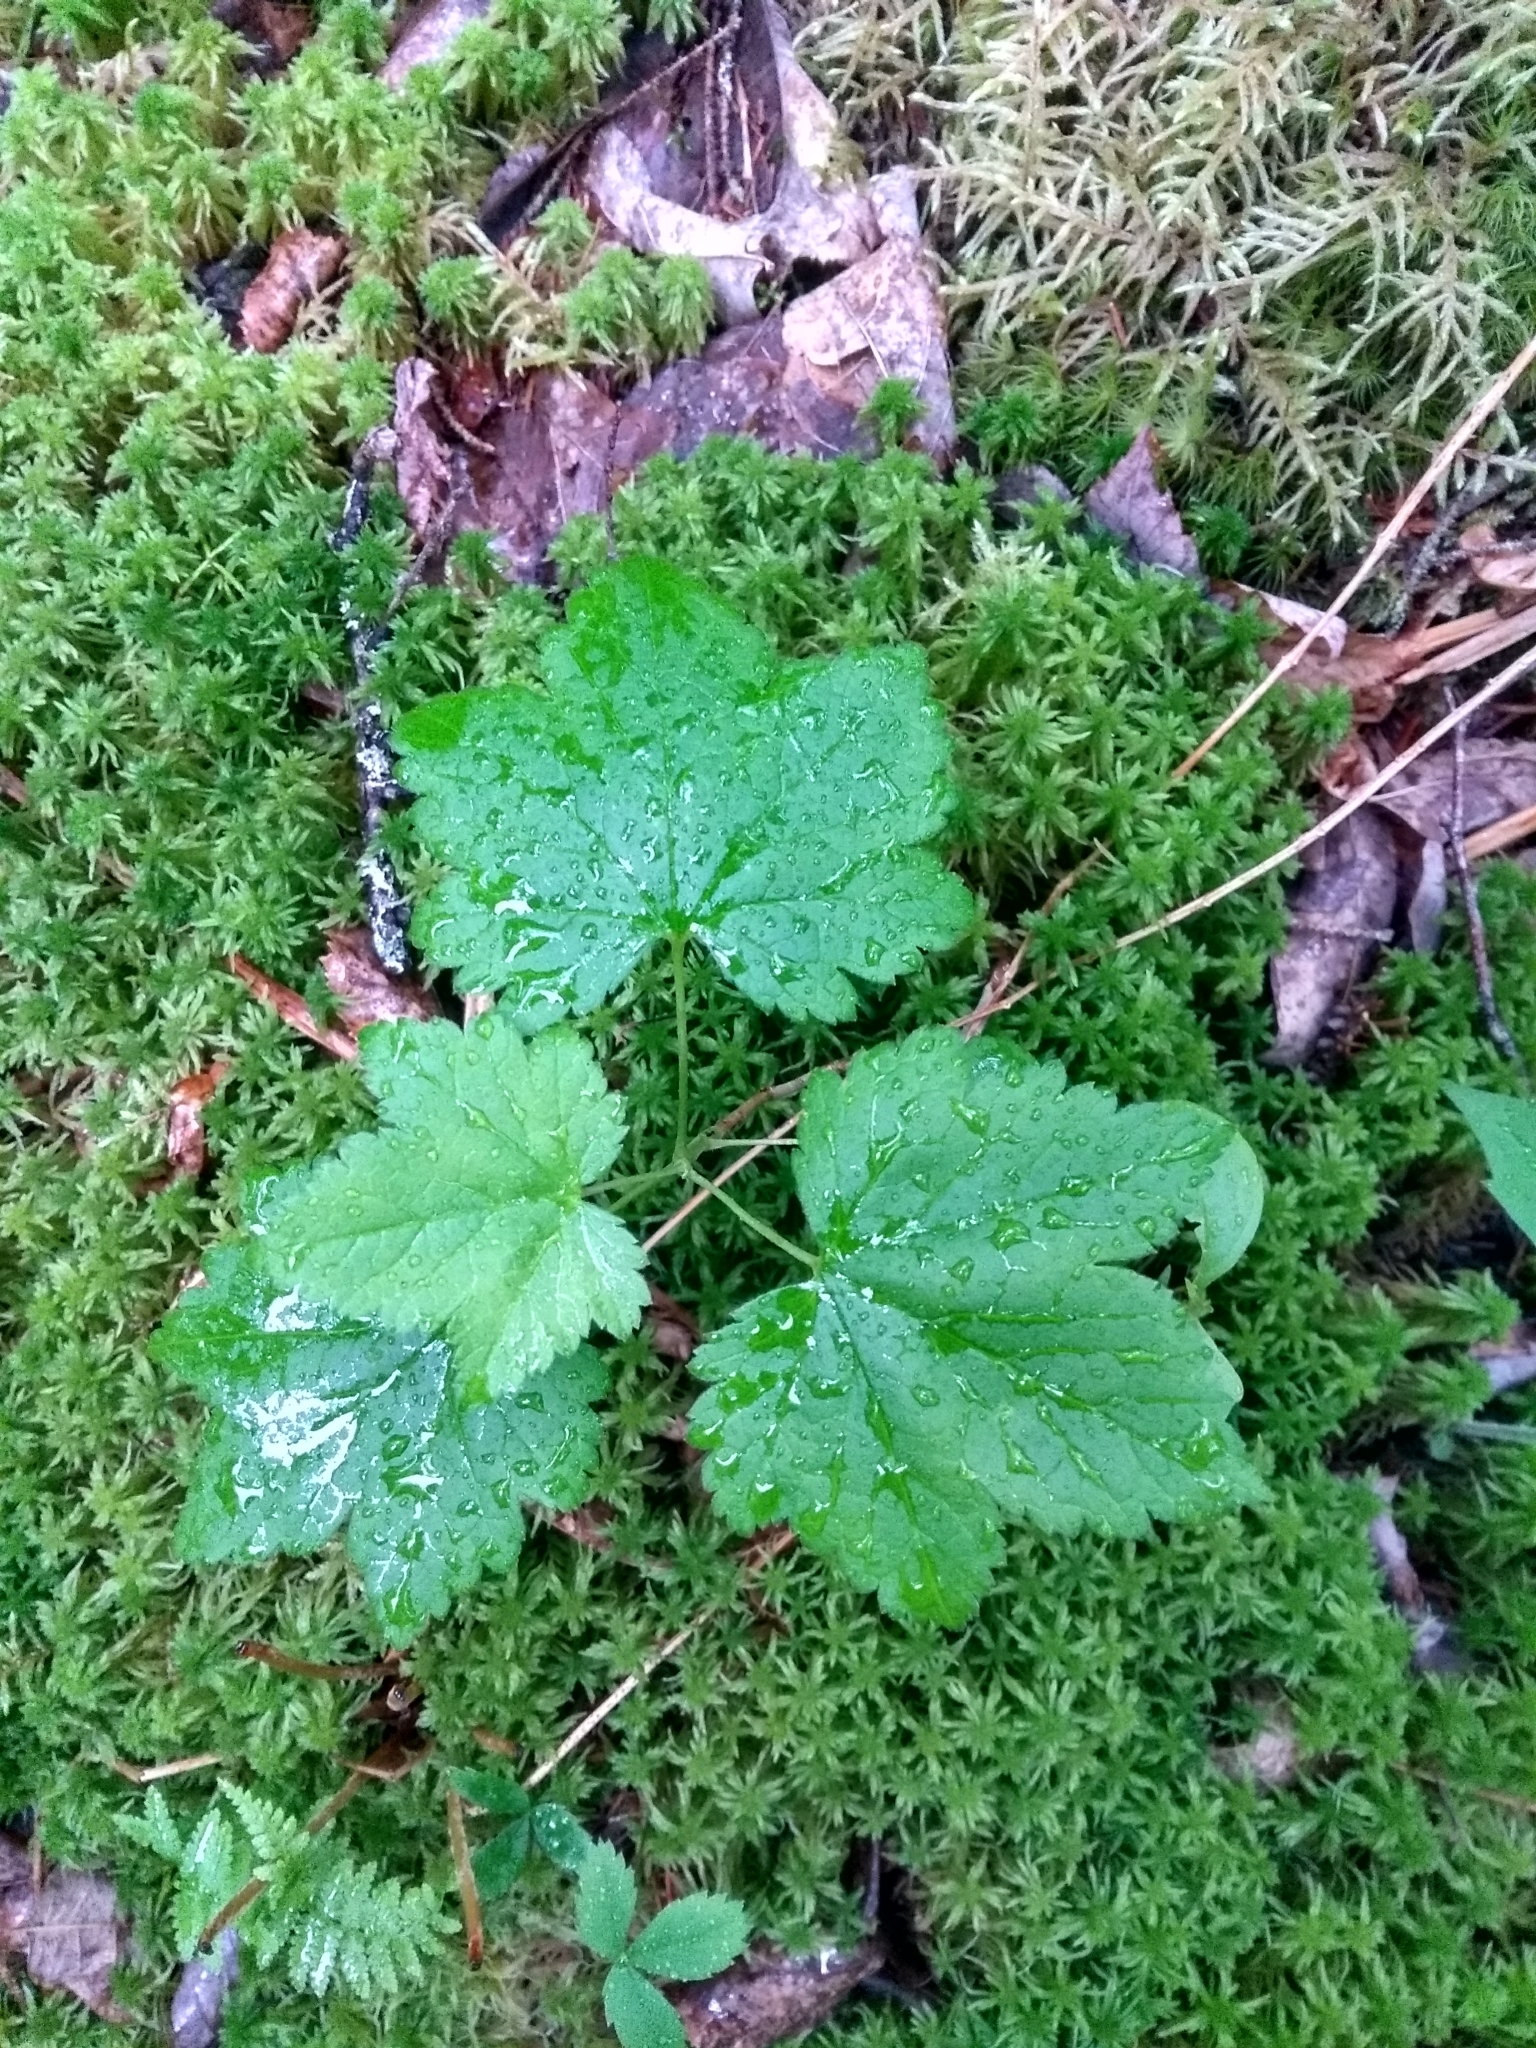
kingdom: Plantae
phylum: Tracheophyta
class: Magnoliopsida
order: Saxifragales
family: Grossulariaceae
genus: Ribes
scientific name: Ribes glandulosum
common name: Skunk currant
